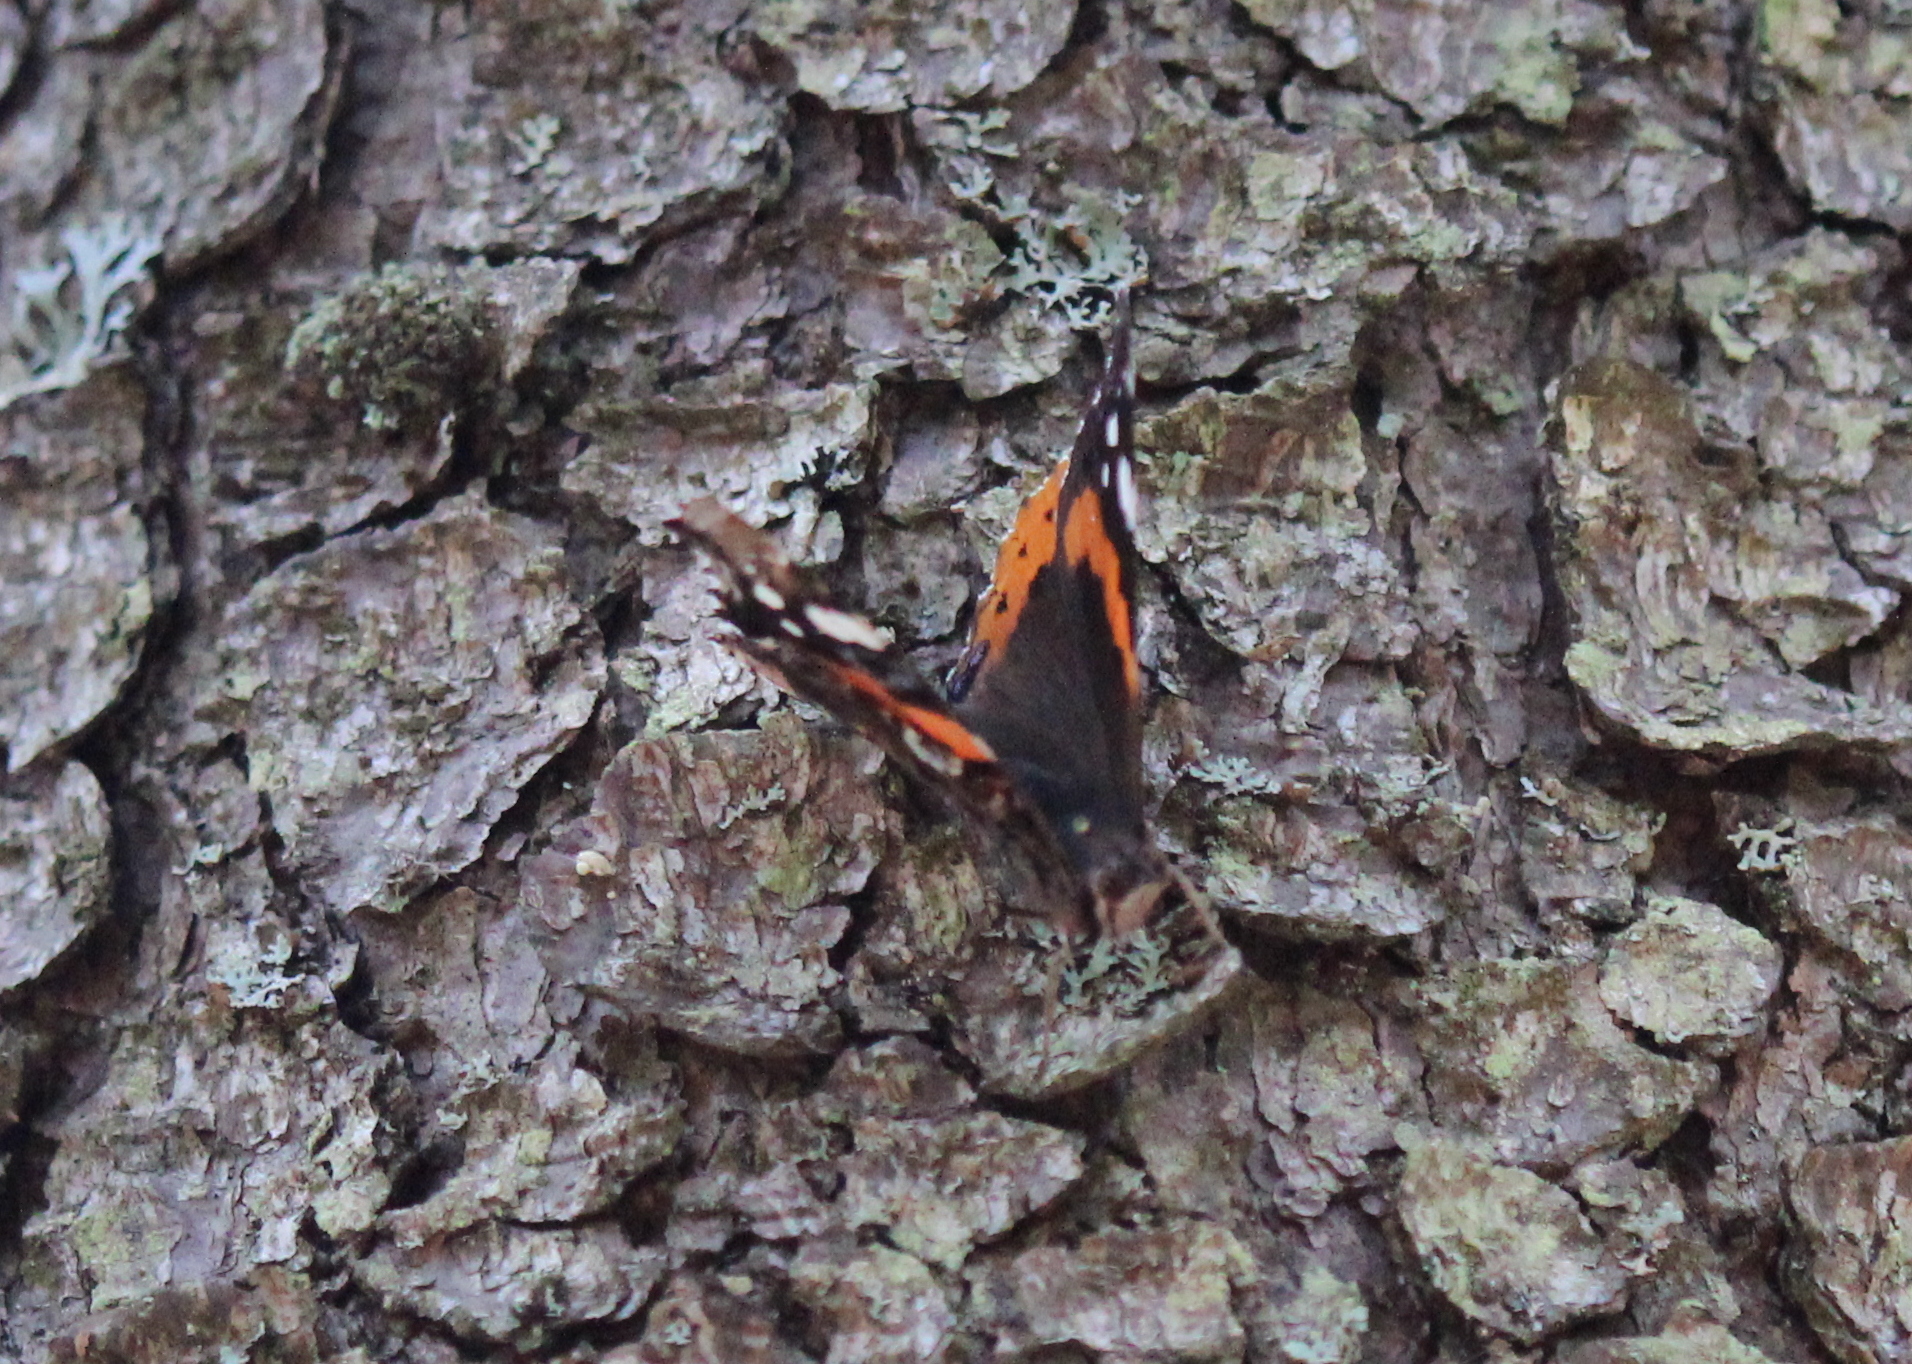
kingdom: Animalia
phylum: Arthropoda
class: Insecta
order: Lepidoptera
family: Nymphalidae
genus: Vanessa
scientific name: Vanessa atalanta
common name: Red admiral
